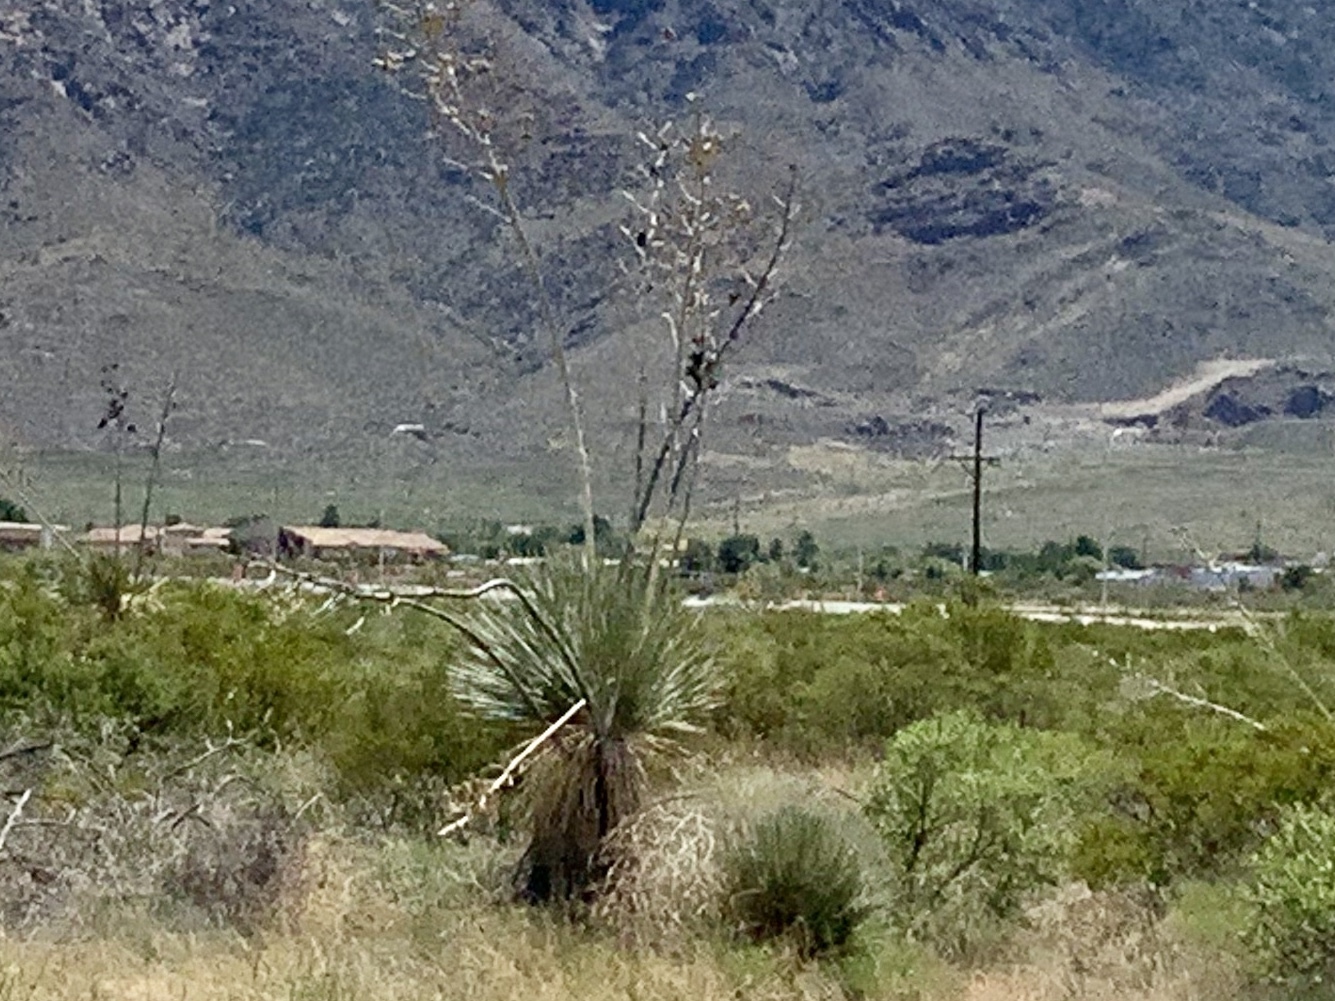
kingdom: Plantae
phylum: Tracheophyta
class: Liliopsida
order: Asparagales
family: Asparagaceae
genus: Yucca
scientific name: Yucca elata
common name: Palmella
